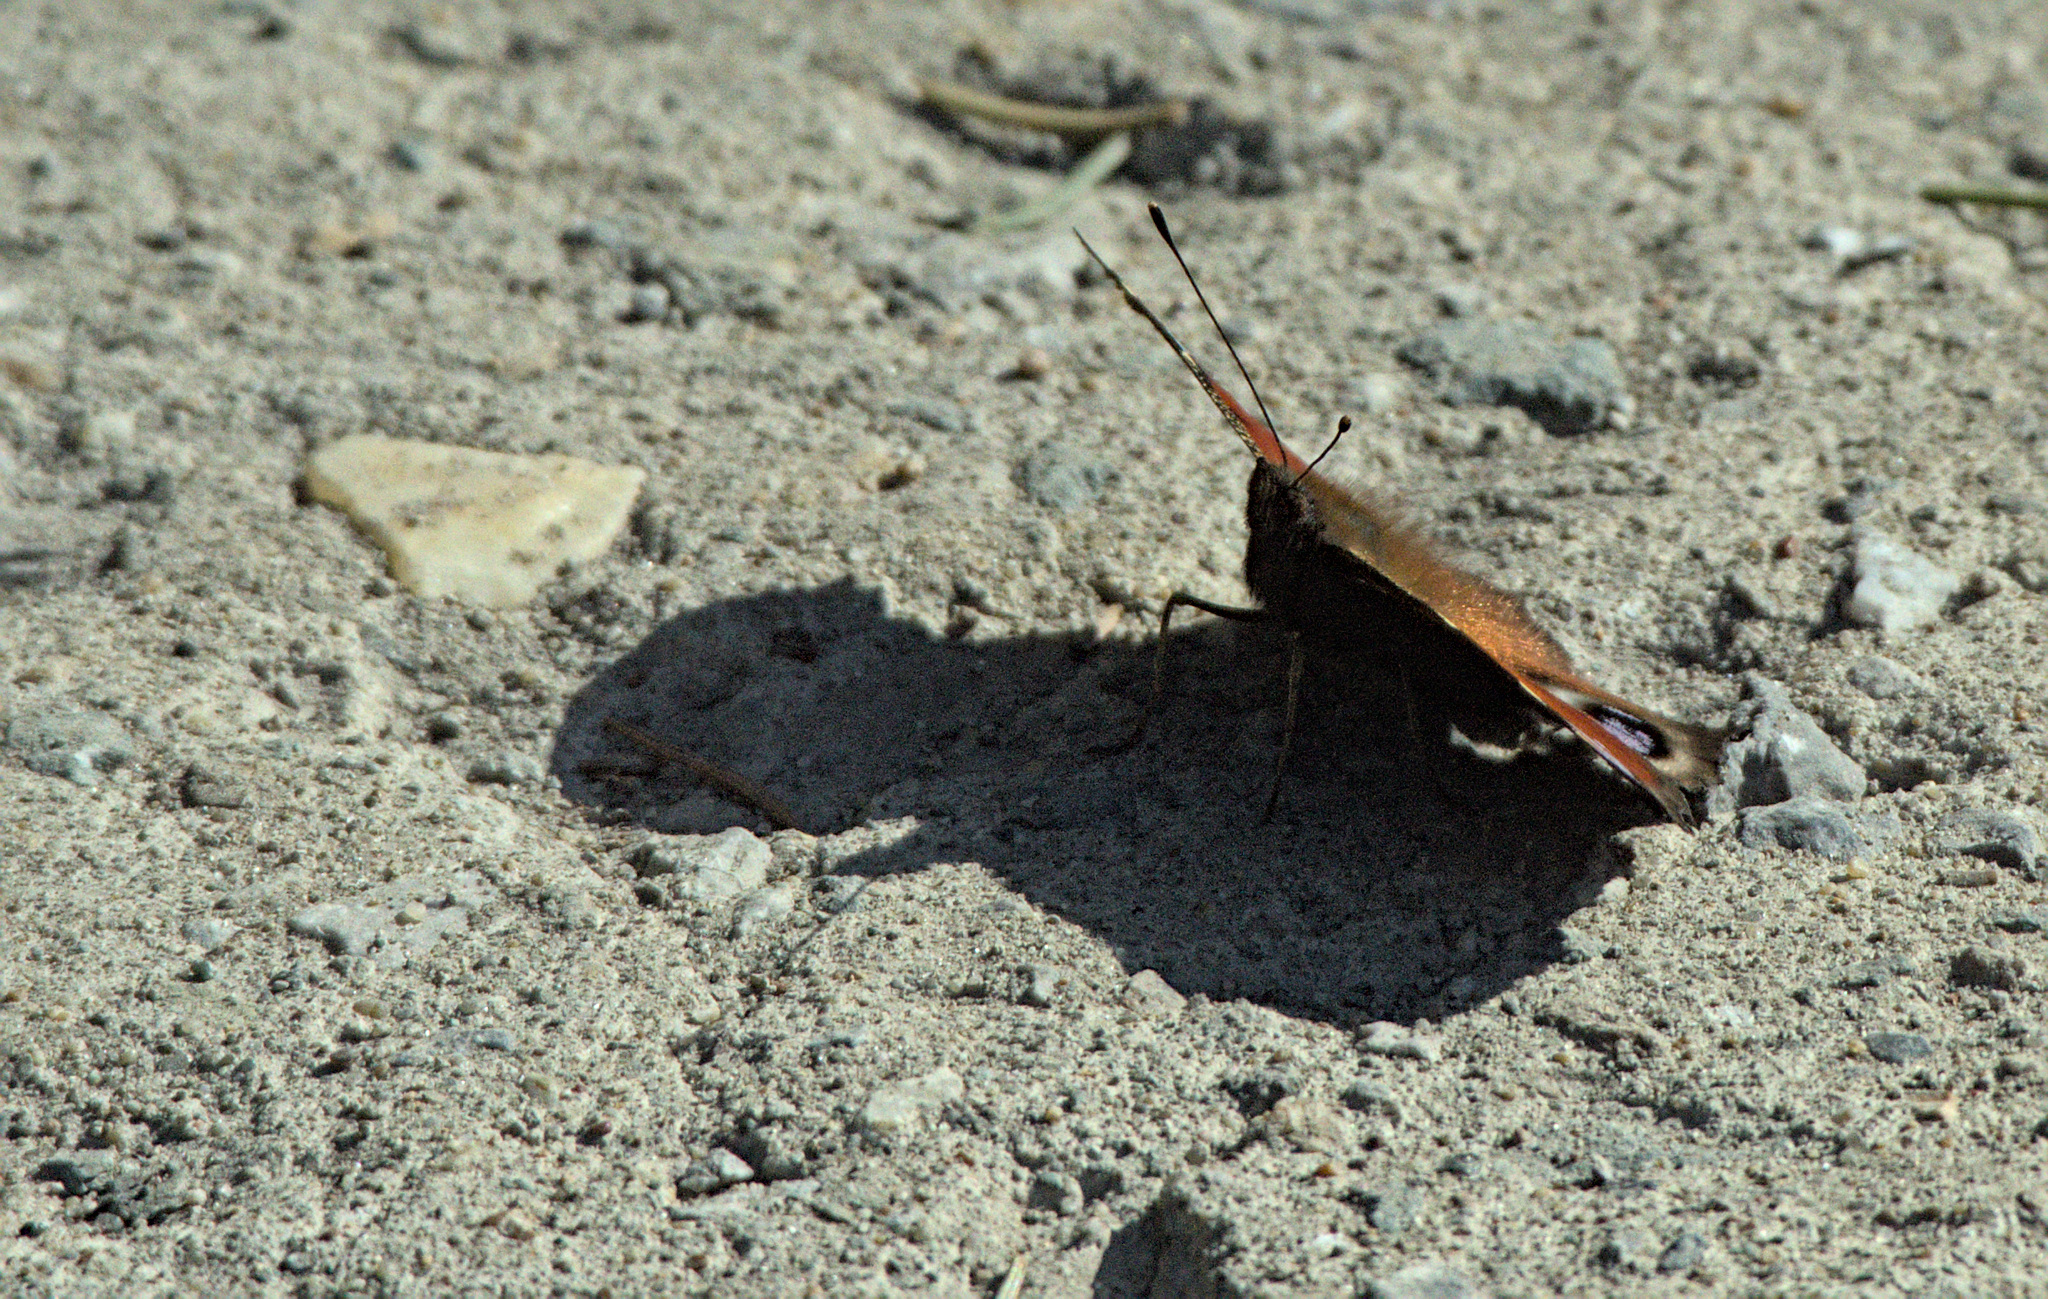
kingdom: Animalia
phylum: Arthropoda
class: Insecta
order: Lepidoptera
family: Nymphalidae
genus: Aglais
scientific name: Aglais io
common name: Peacock
